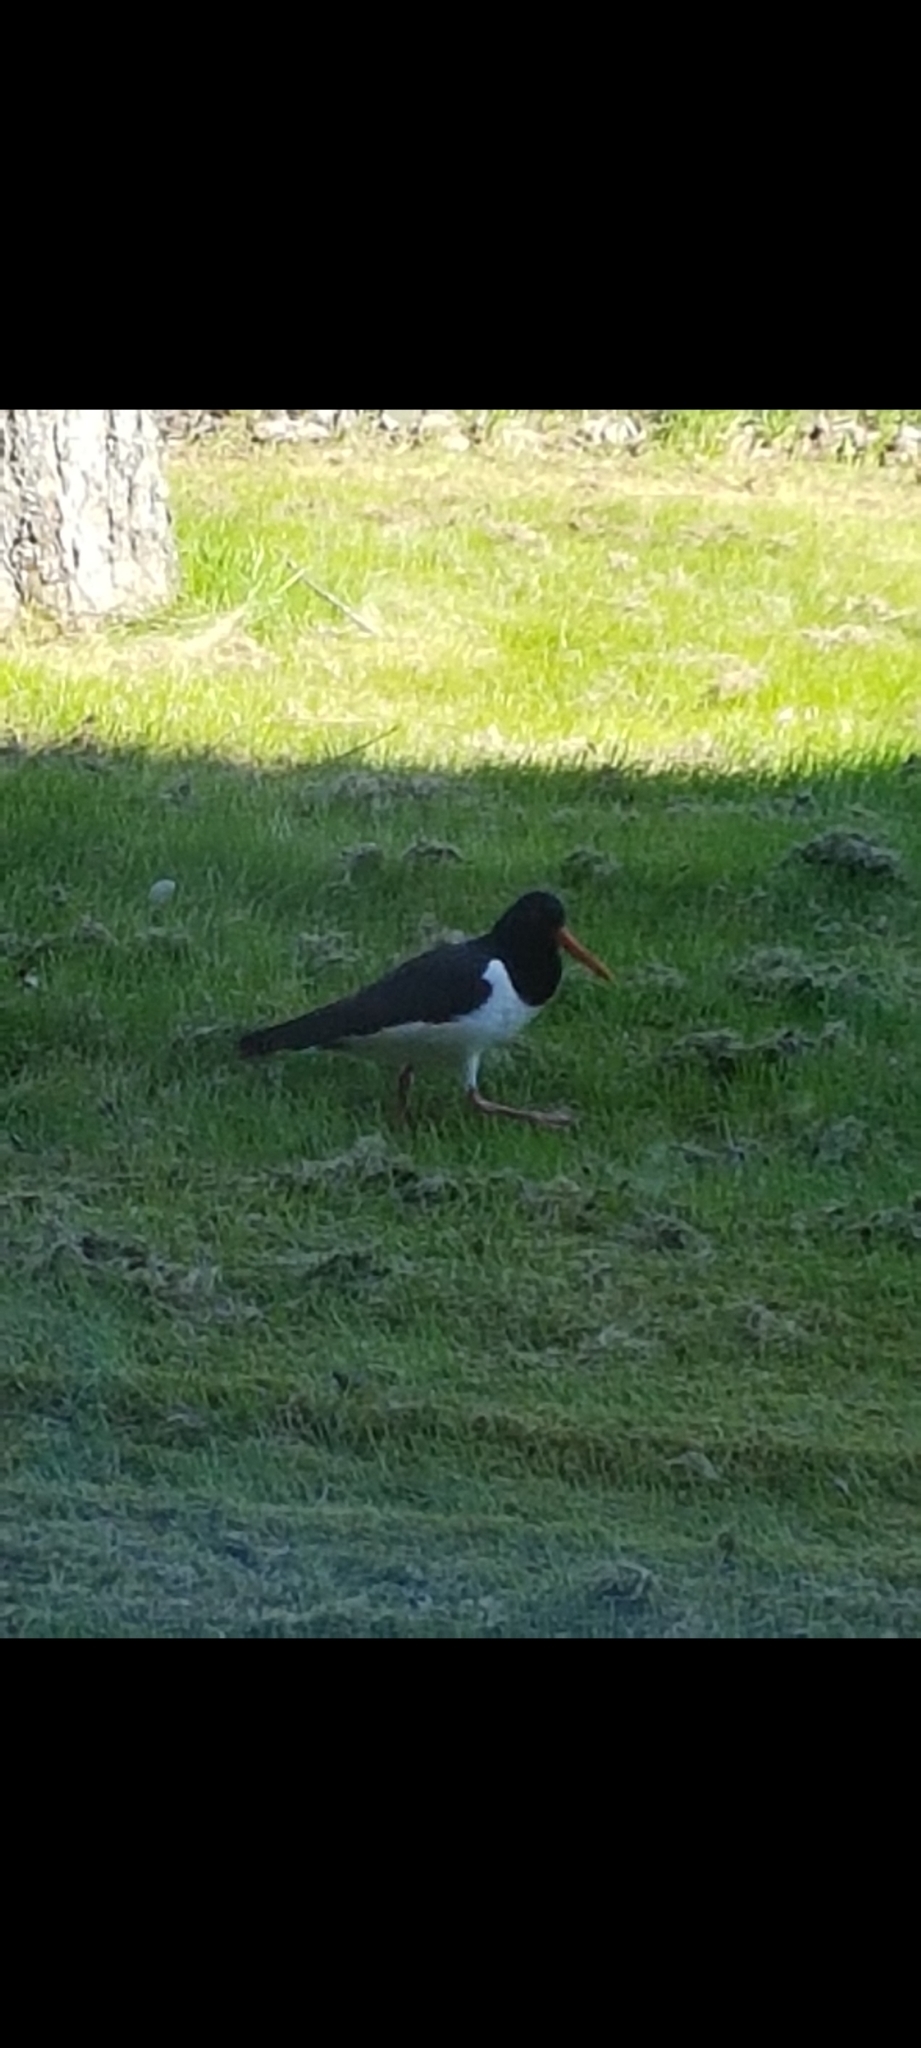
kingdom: Animalia
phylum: Chordata
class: Aves
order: Charadriiformes
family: Haematopodidae
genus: Haematopus
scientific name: Haematopus ostralegus
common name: Eurasian oystercatcher
